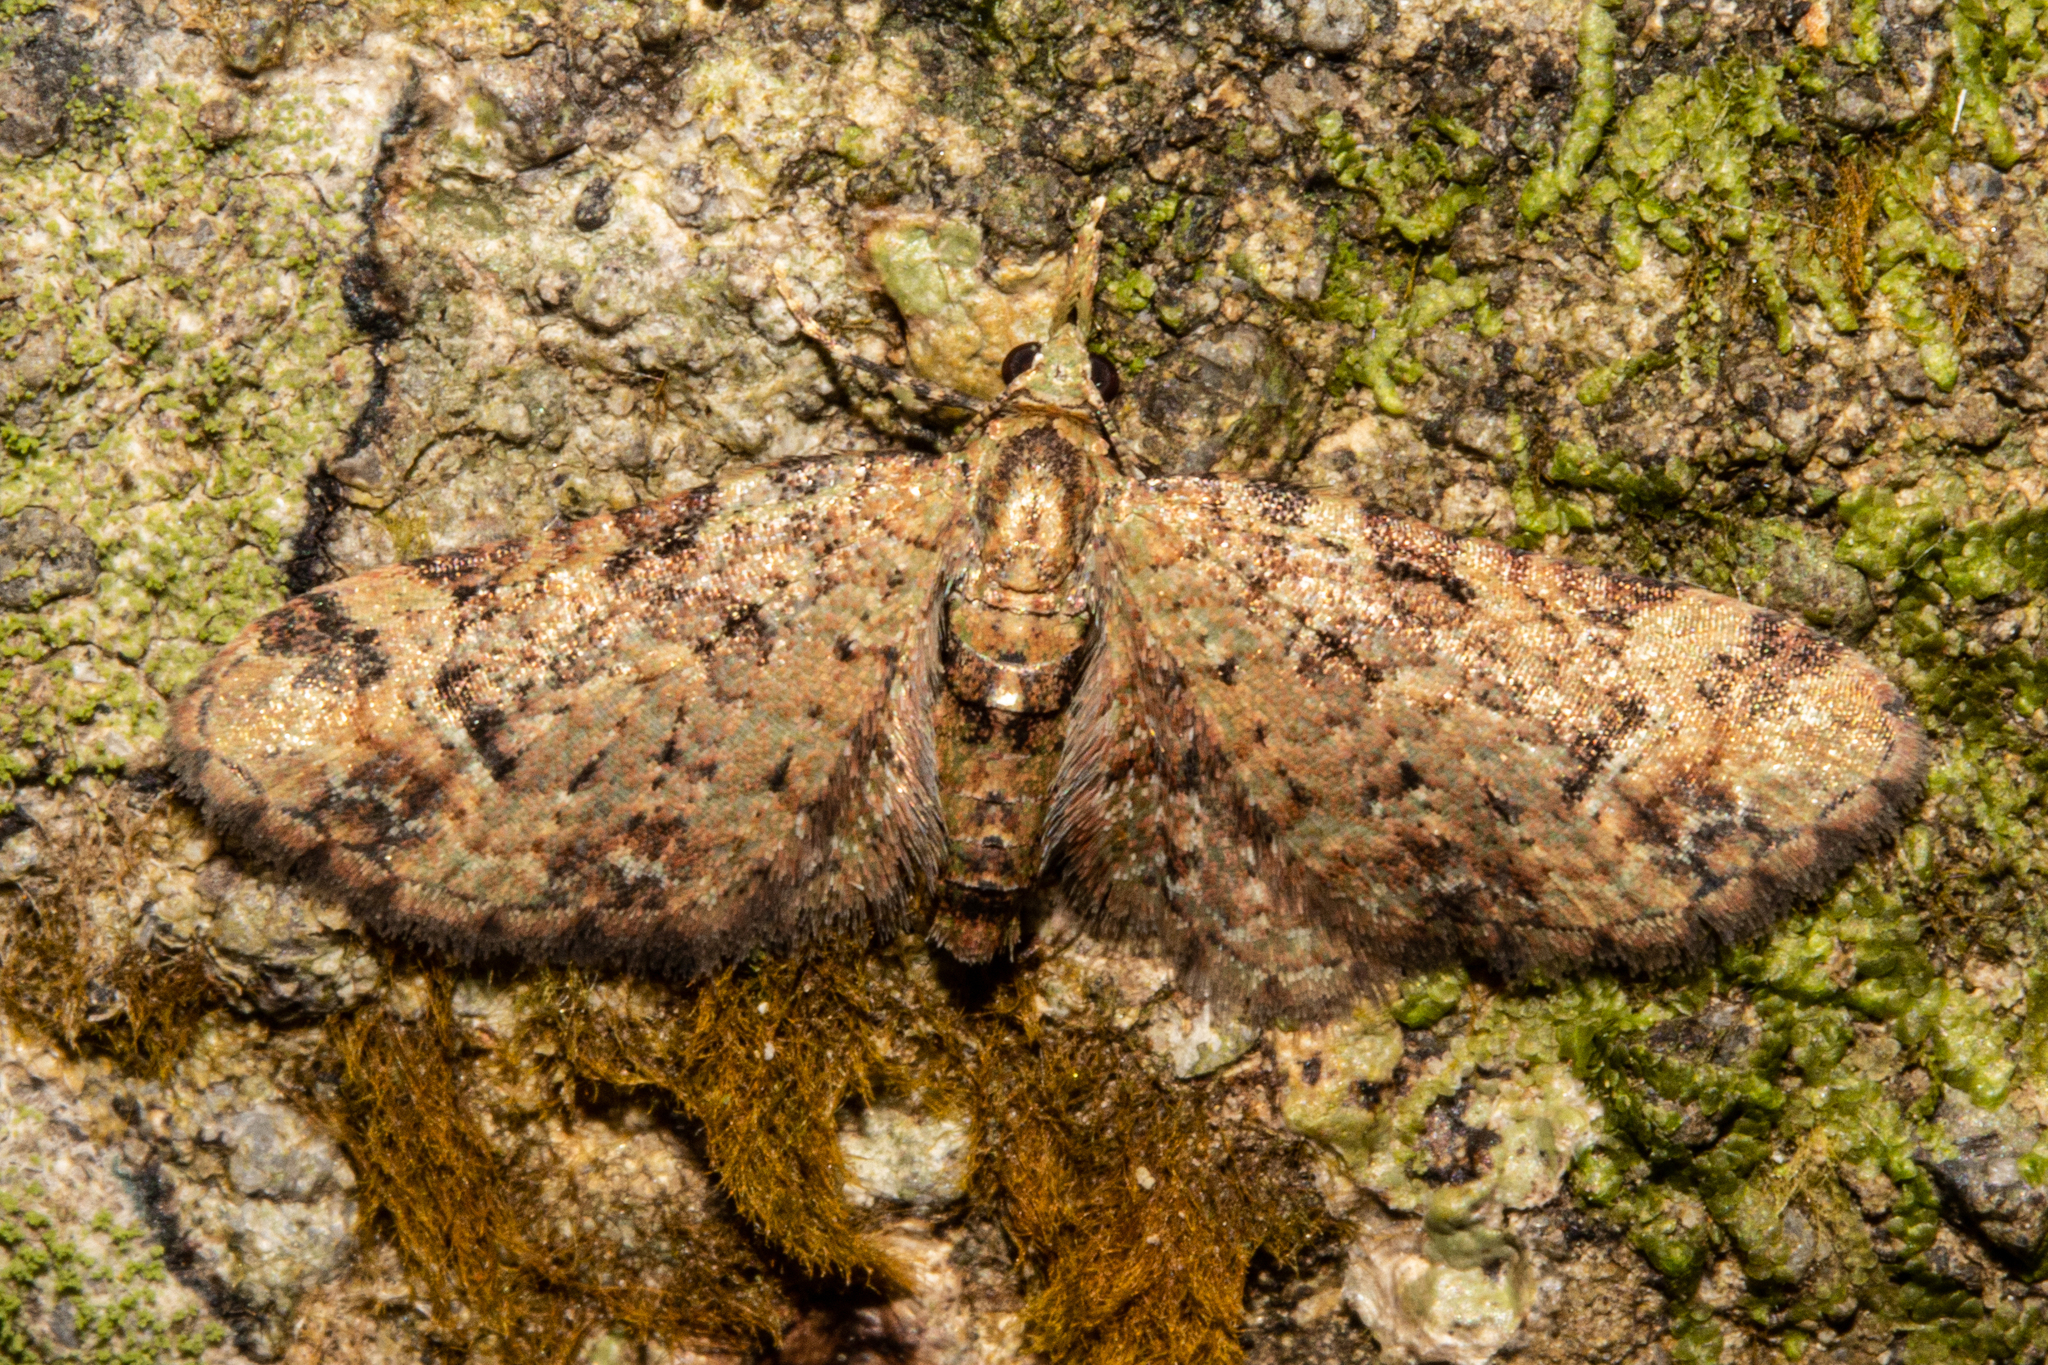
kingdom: Animalia
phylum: Arthropoda
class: Insecta
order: Lepidoptera
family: Geometridae
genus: Pasiphila
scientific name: Pasiphila plinthina
